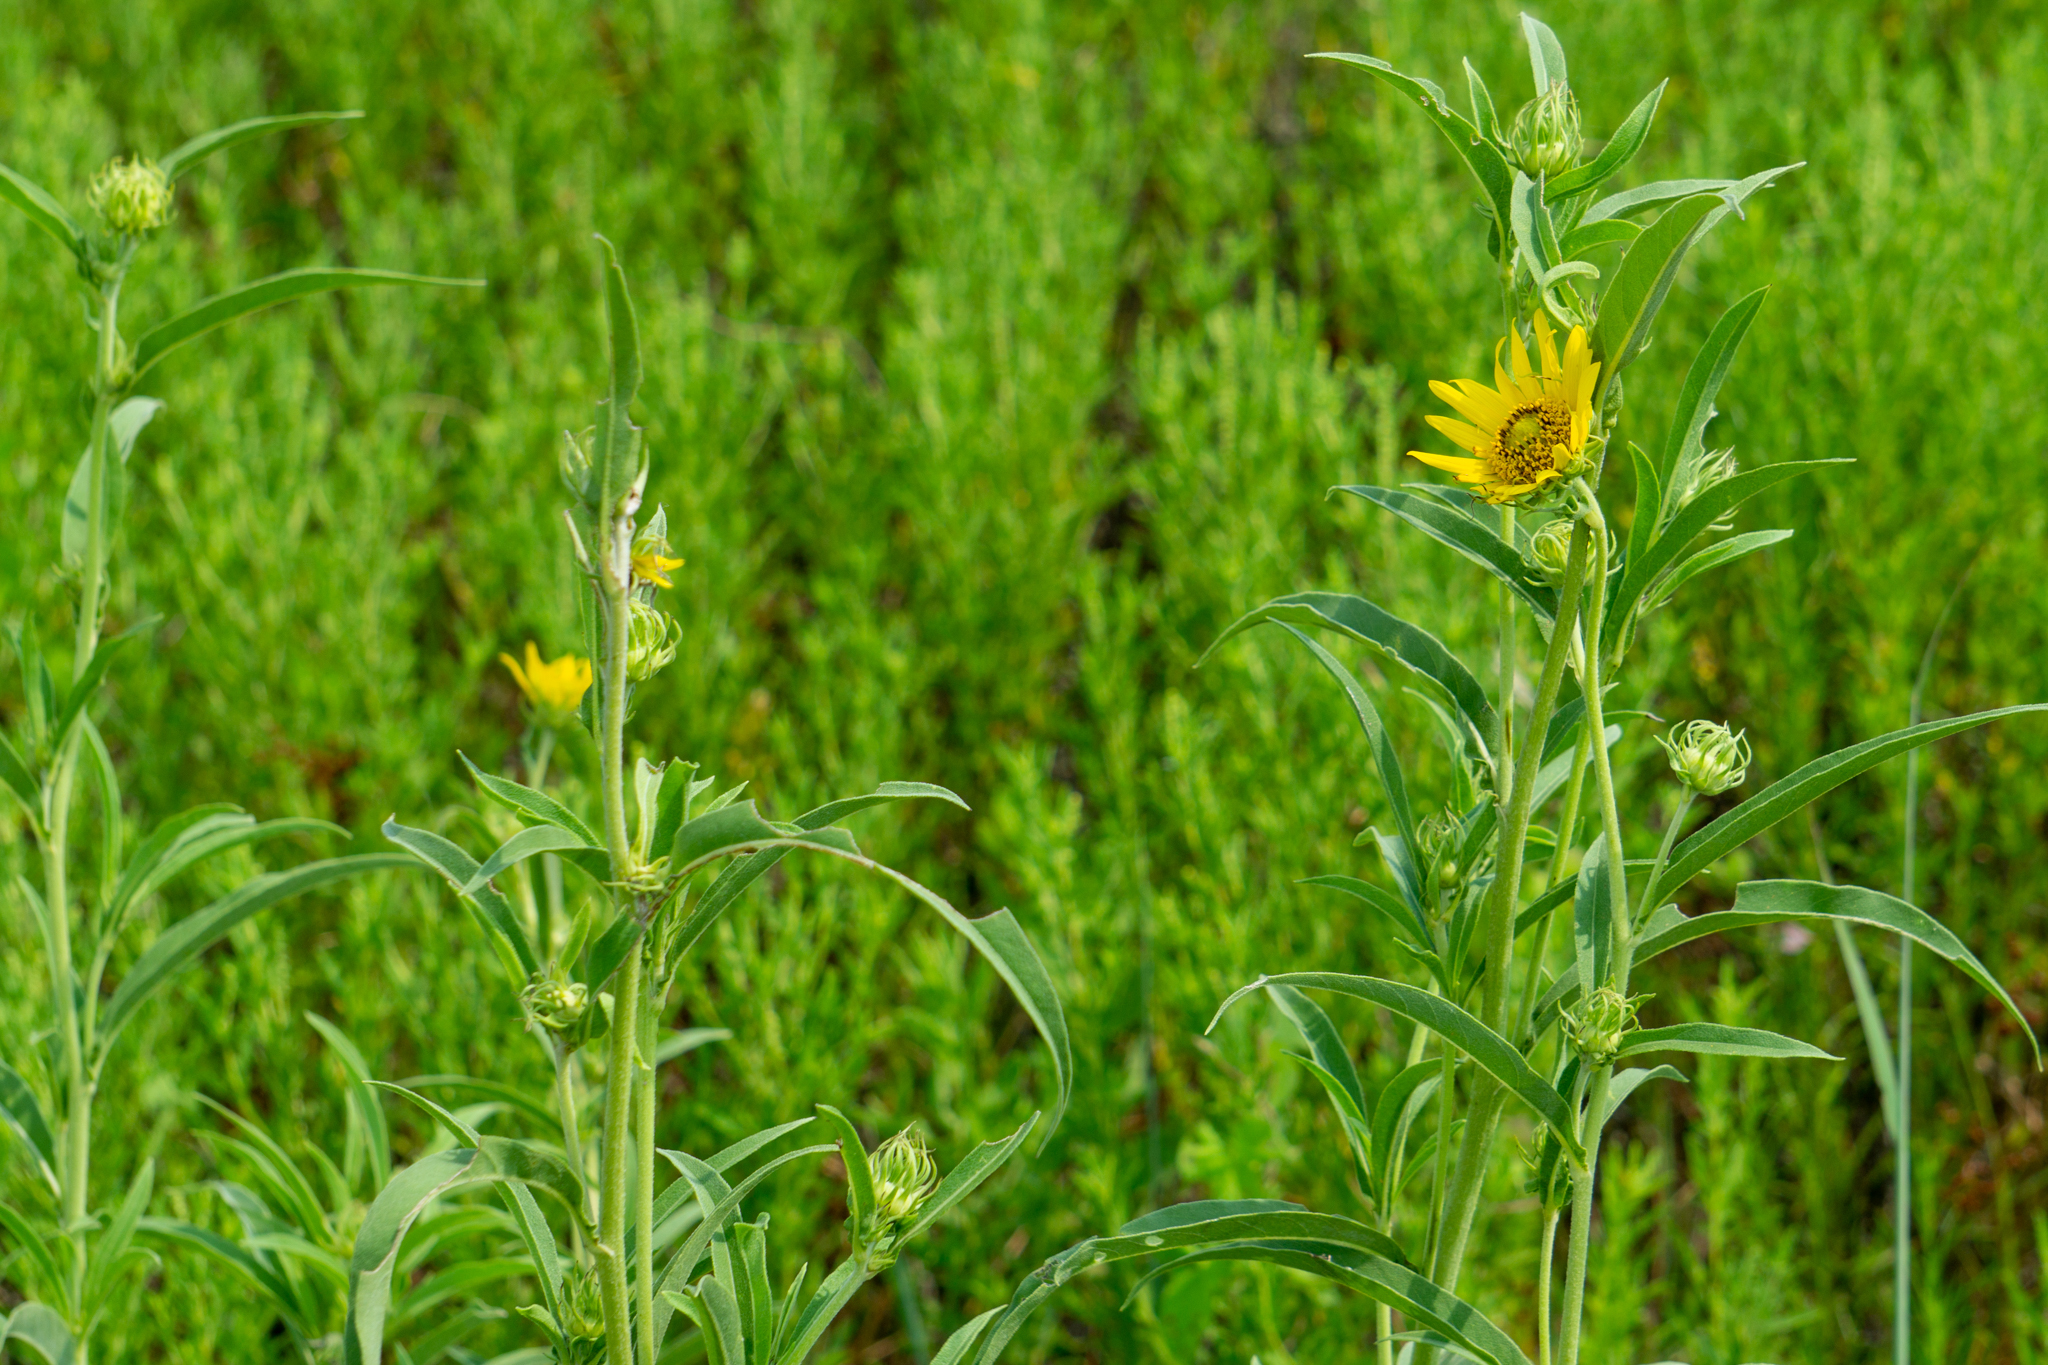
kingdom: Plantae
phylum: Tracheophyta
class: Magnoliopsida
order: Asterales
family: Asteraceae
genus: Helianthus
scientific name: Helianthus maximiliani
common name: Maximilian's sunflower
